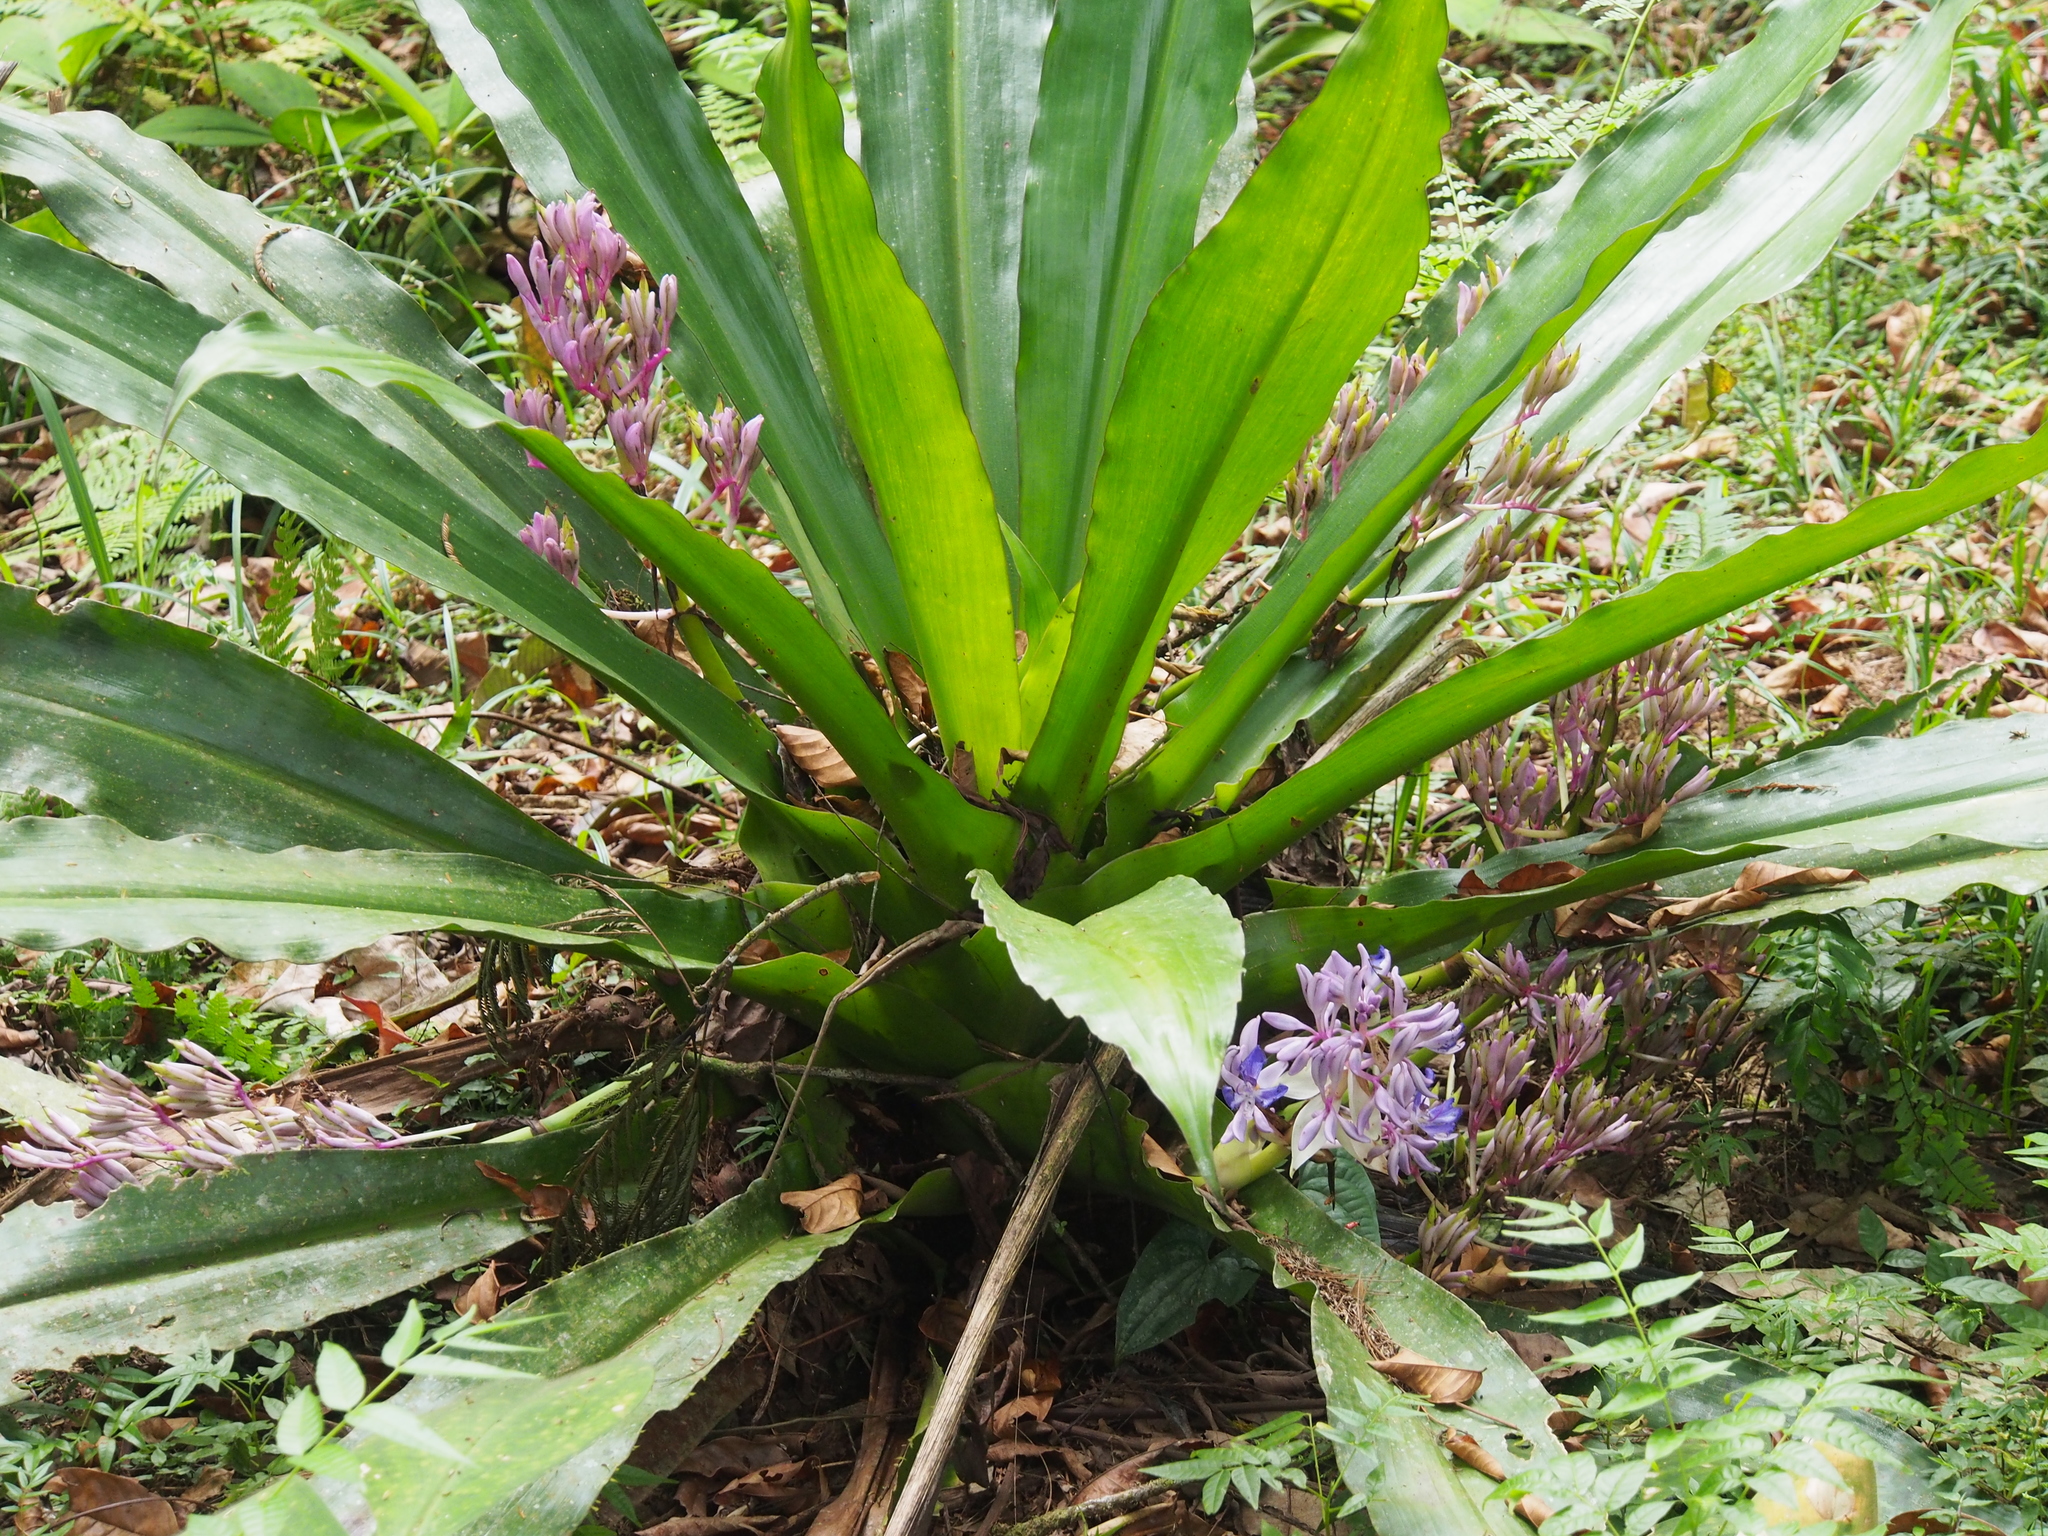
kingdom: Plantae
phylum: Tracheophyta
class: Liliopsida
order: Commelinales
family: Commelinaceae
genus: Cochliostema
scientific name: Cochliostema odoratissimum
